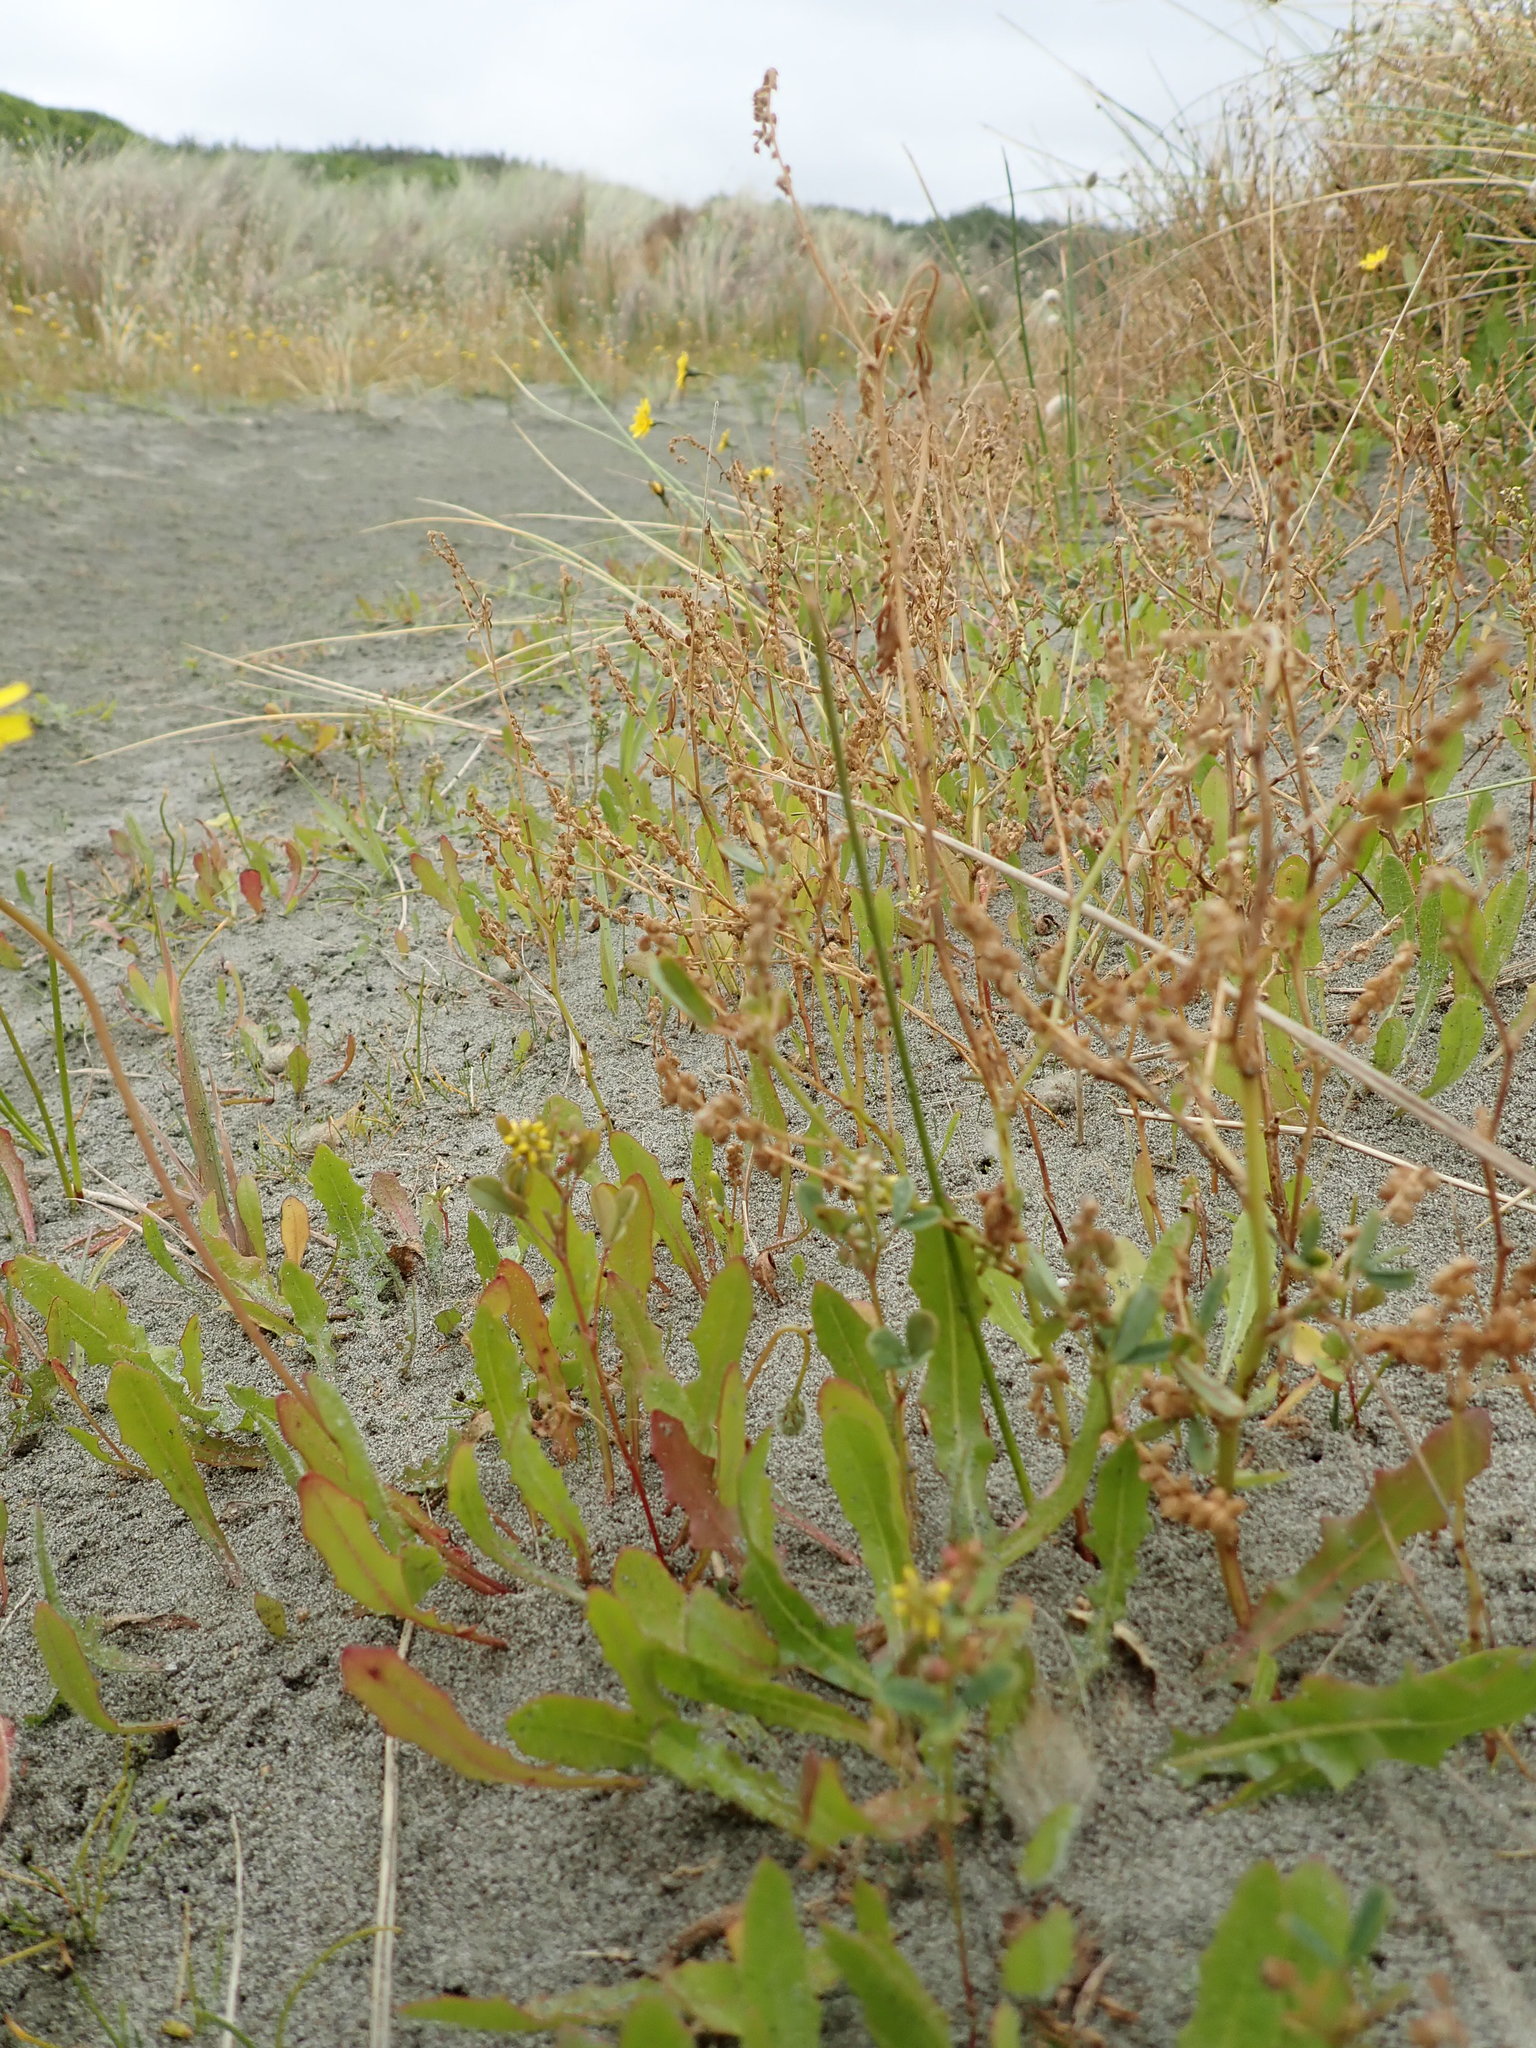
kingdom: Plantae
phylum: Tracheophyta
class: Magnoliopsida
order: Fabales
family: Fabaceae
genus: Melilotus
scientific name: Melilotus indicus
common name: Small melilot
